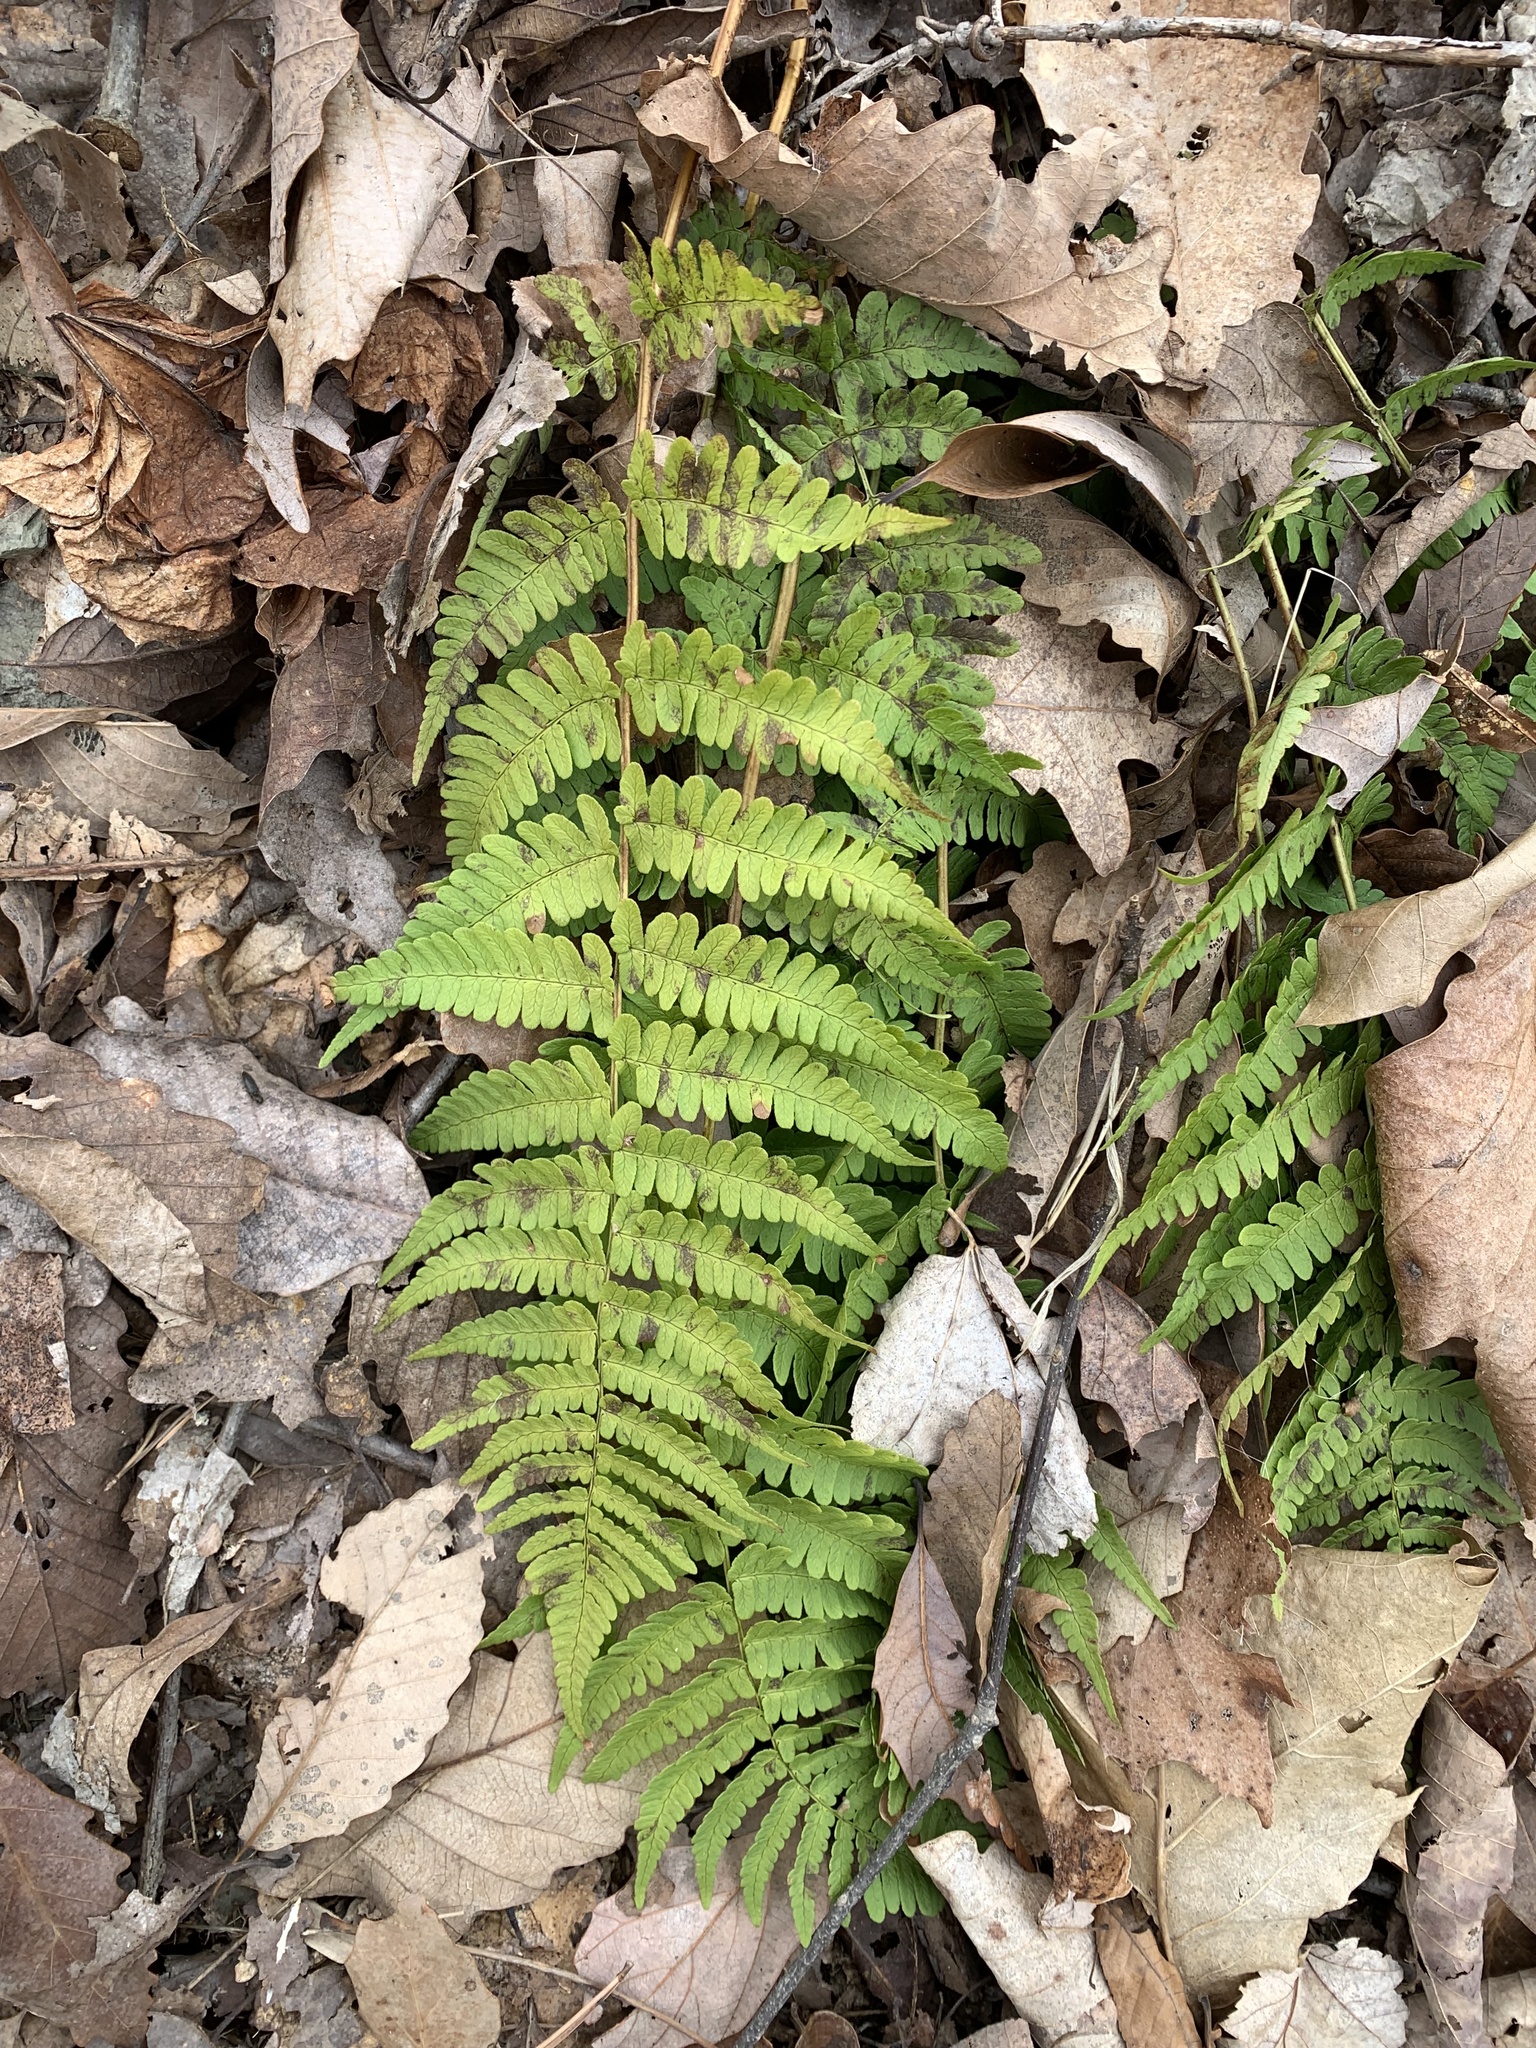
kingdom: Plantae
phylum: Tracheophyta
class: Polypodiopsida
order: Polypodiales
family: Dryopteridaceae
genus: Dryopteris
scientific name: Dryopteris marginalis
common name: Marginal wood fern
